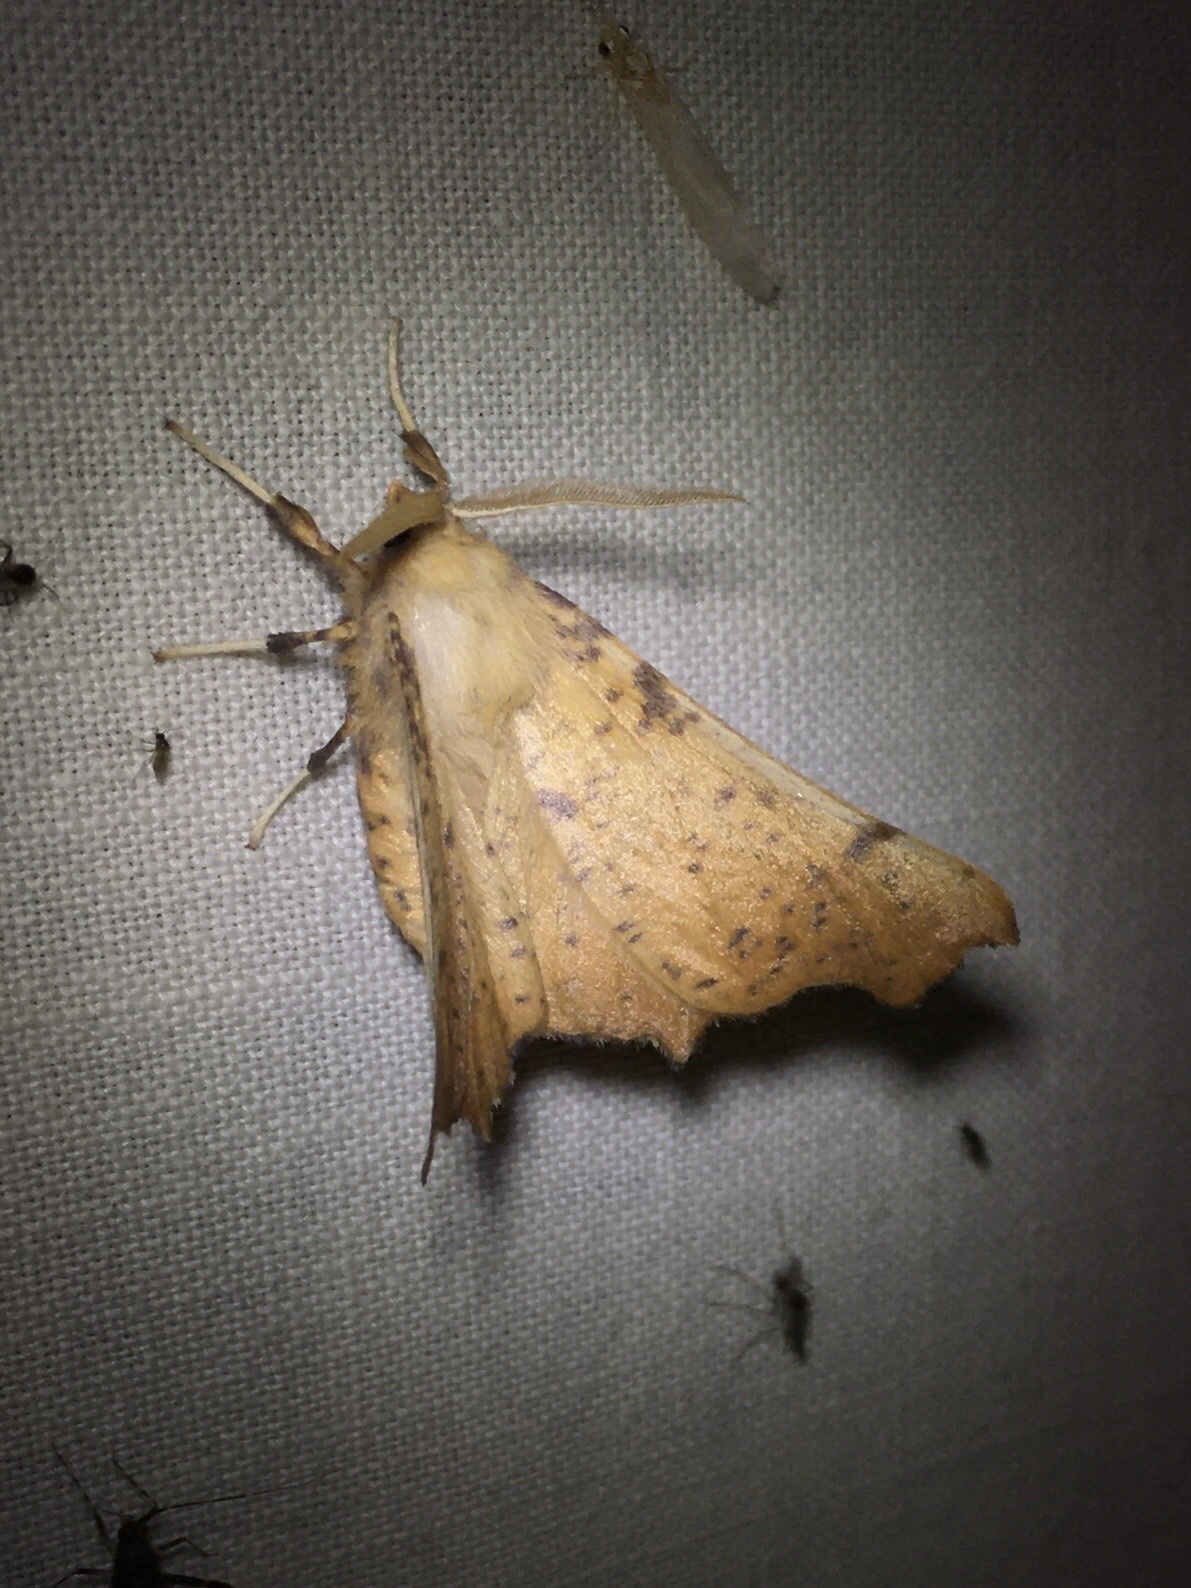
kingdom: Animalia
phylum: Arthropoda
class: Insecta
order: Lepidoptera
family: Geometridae
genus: Ennomos
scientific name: Ennomos magnaria
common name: Maple spanworm
